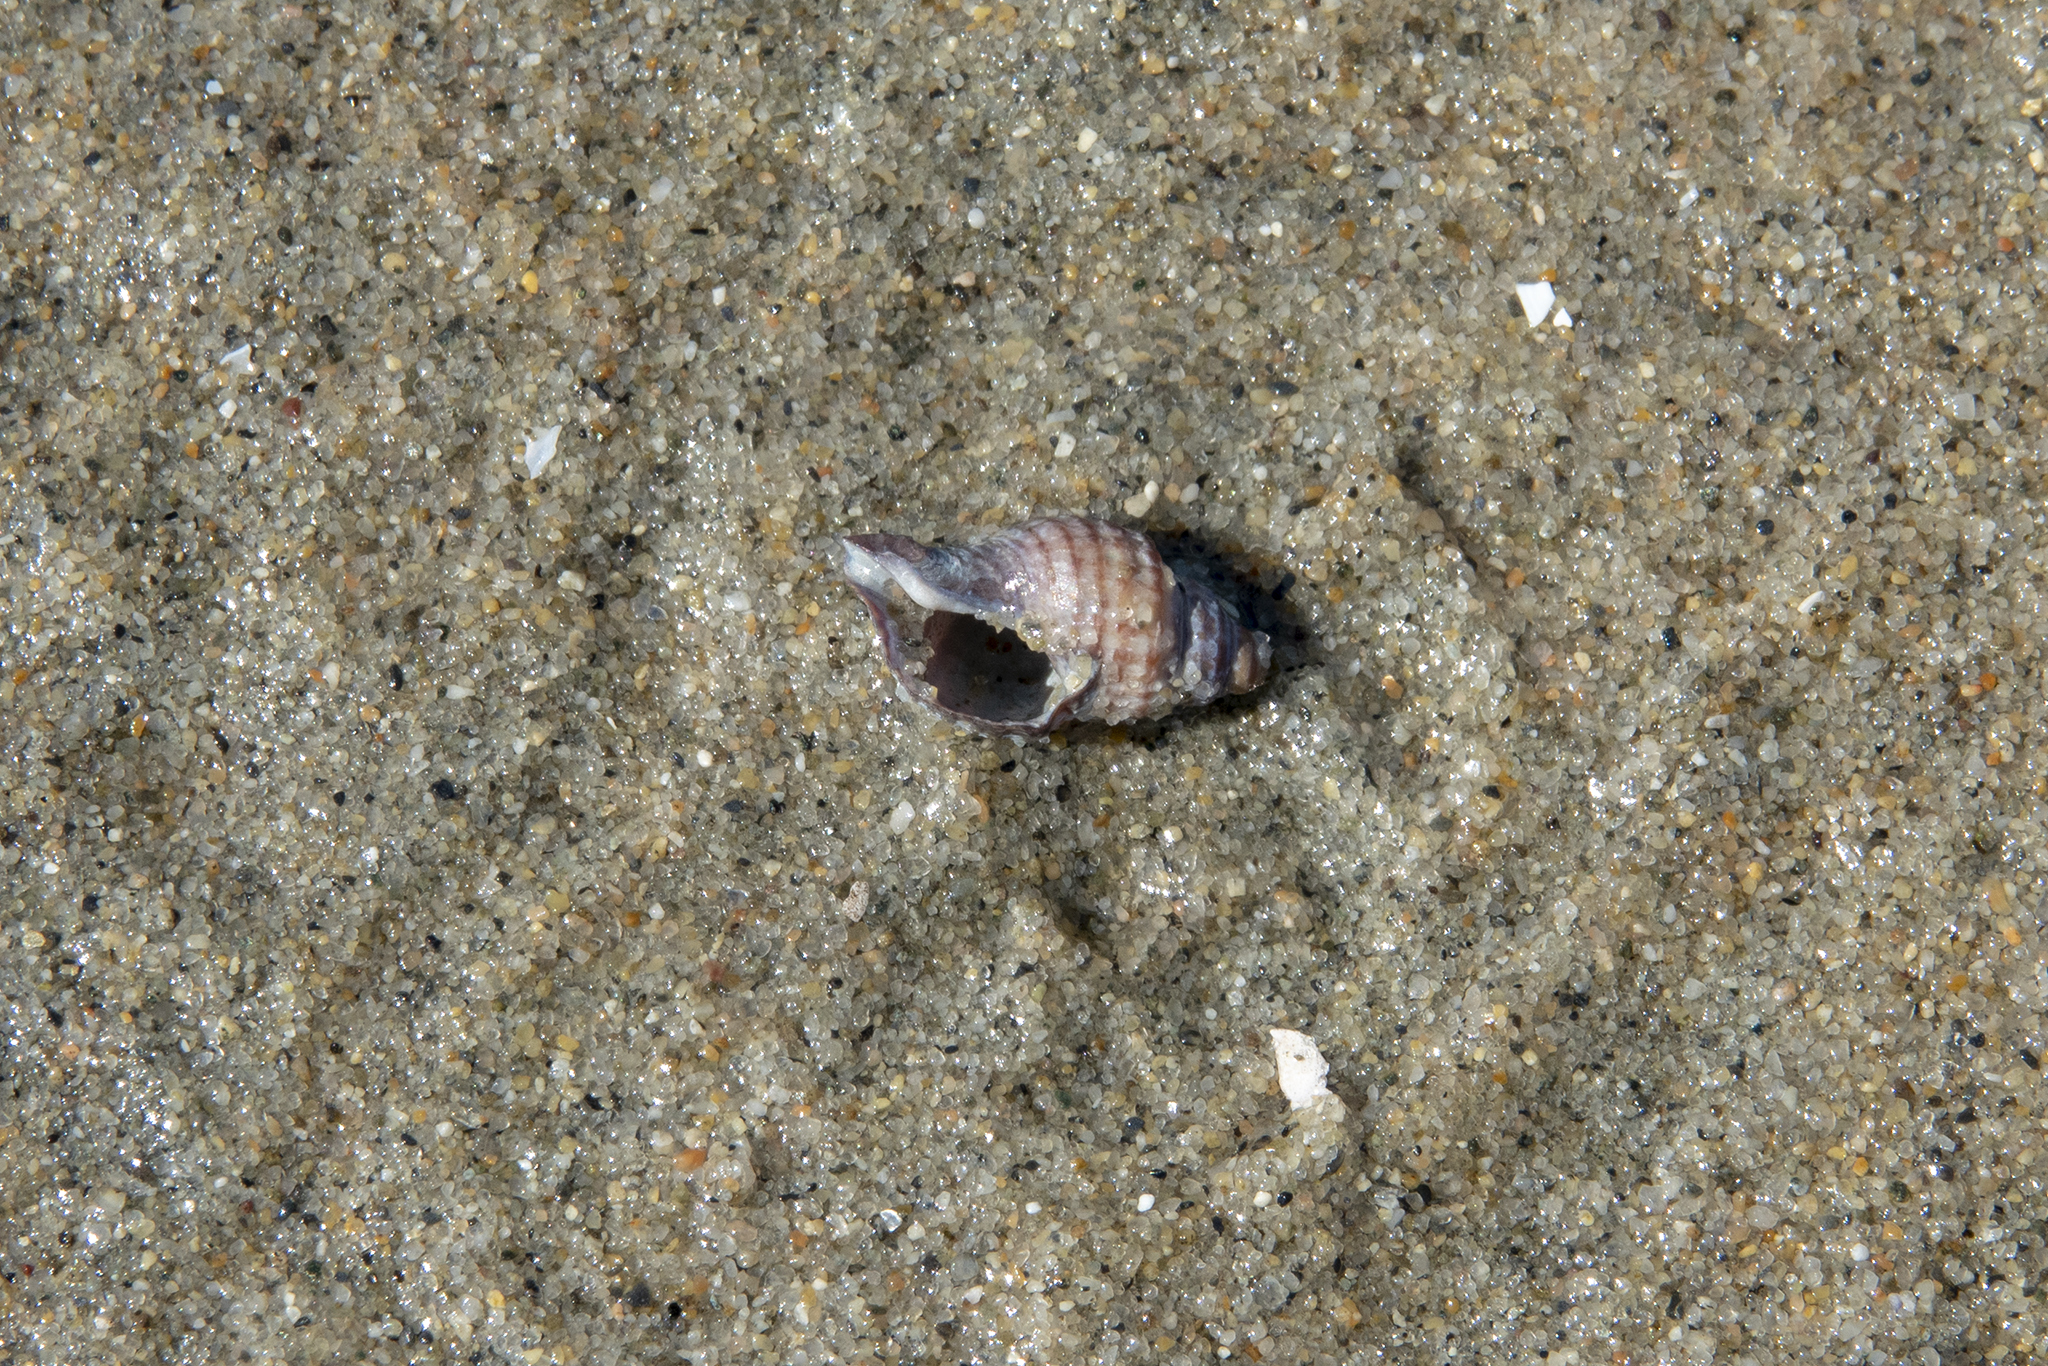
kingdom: Animalia
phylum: Mollusca
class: Gastropoda
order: Neogastropoda
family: Muricidae
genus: Xymene
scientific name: Xymene plebeius
